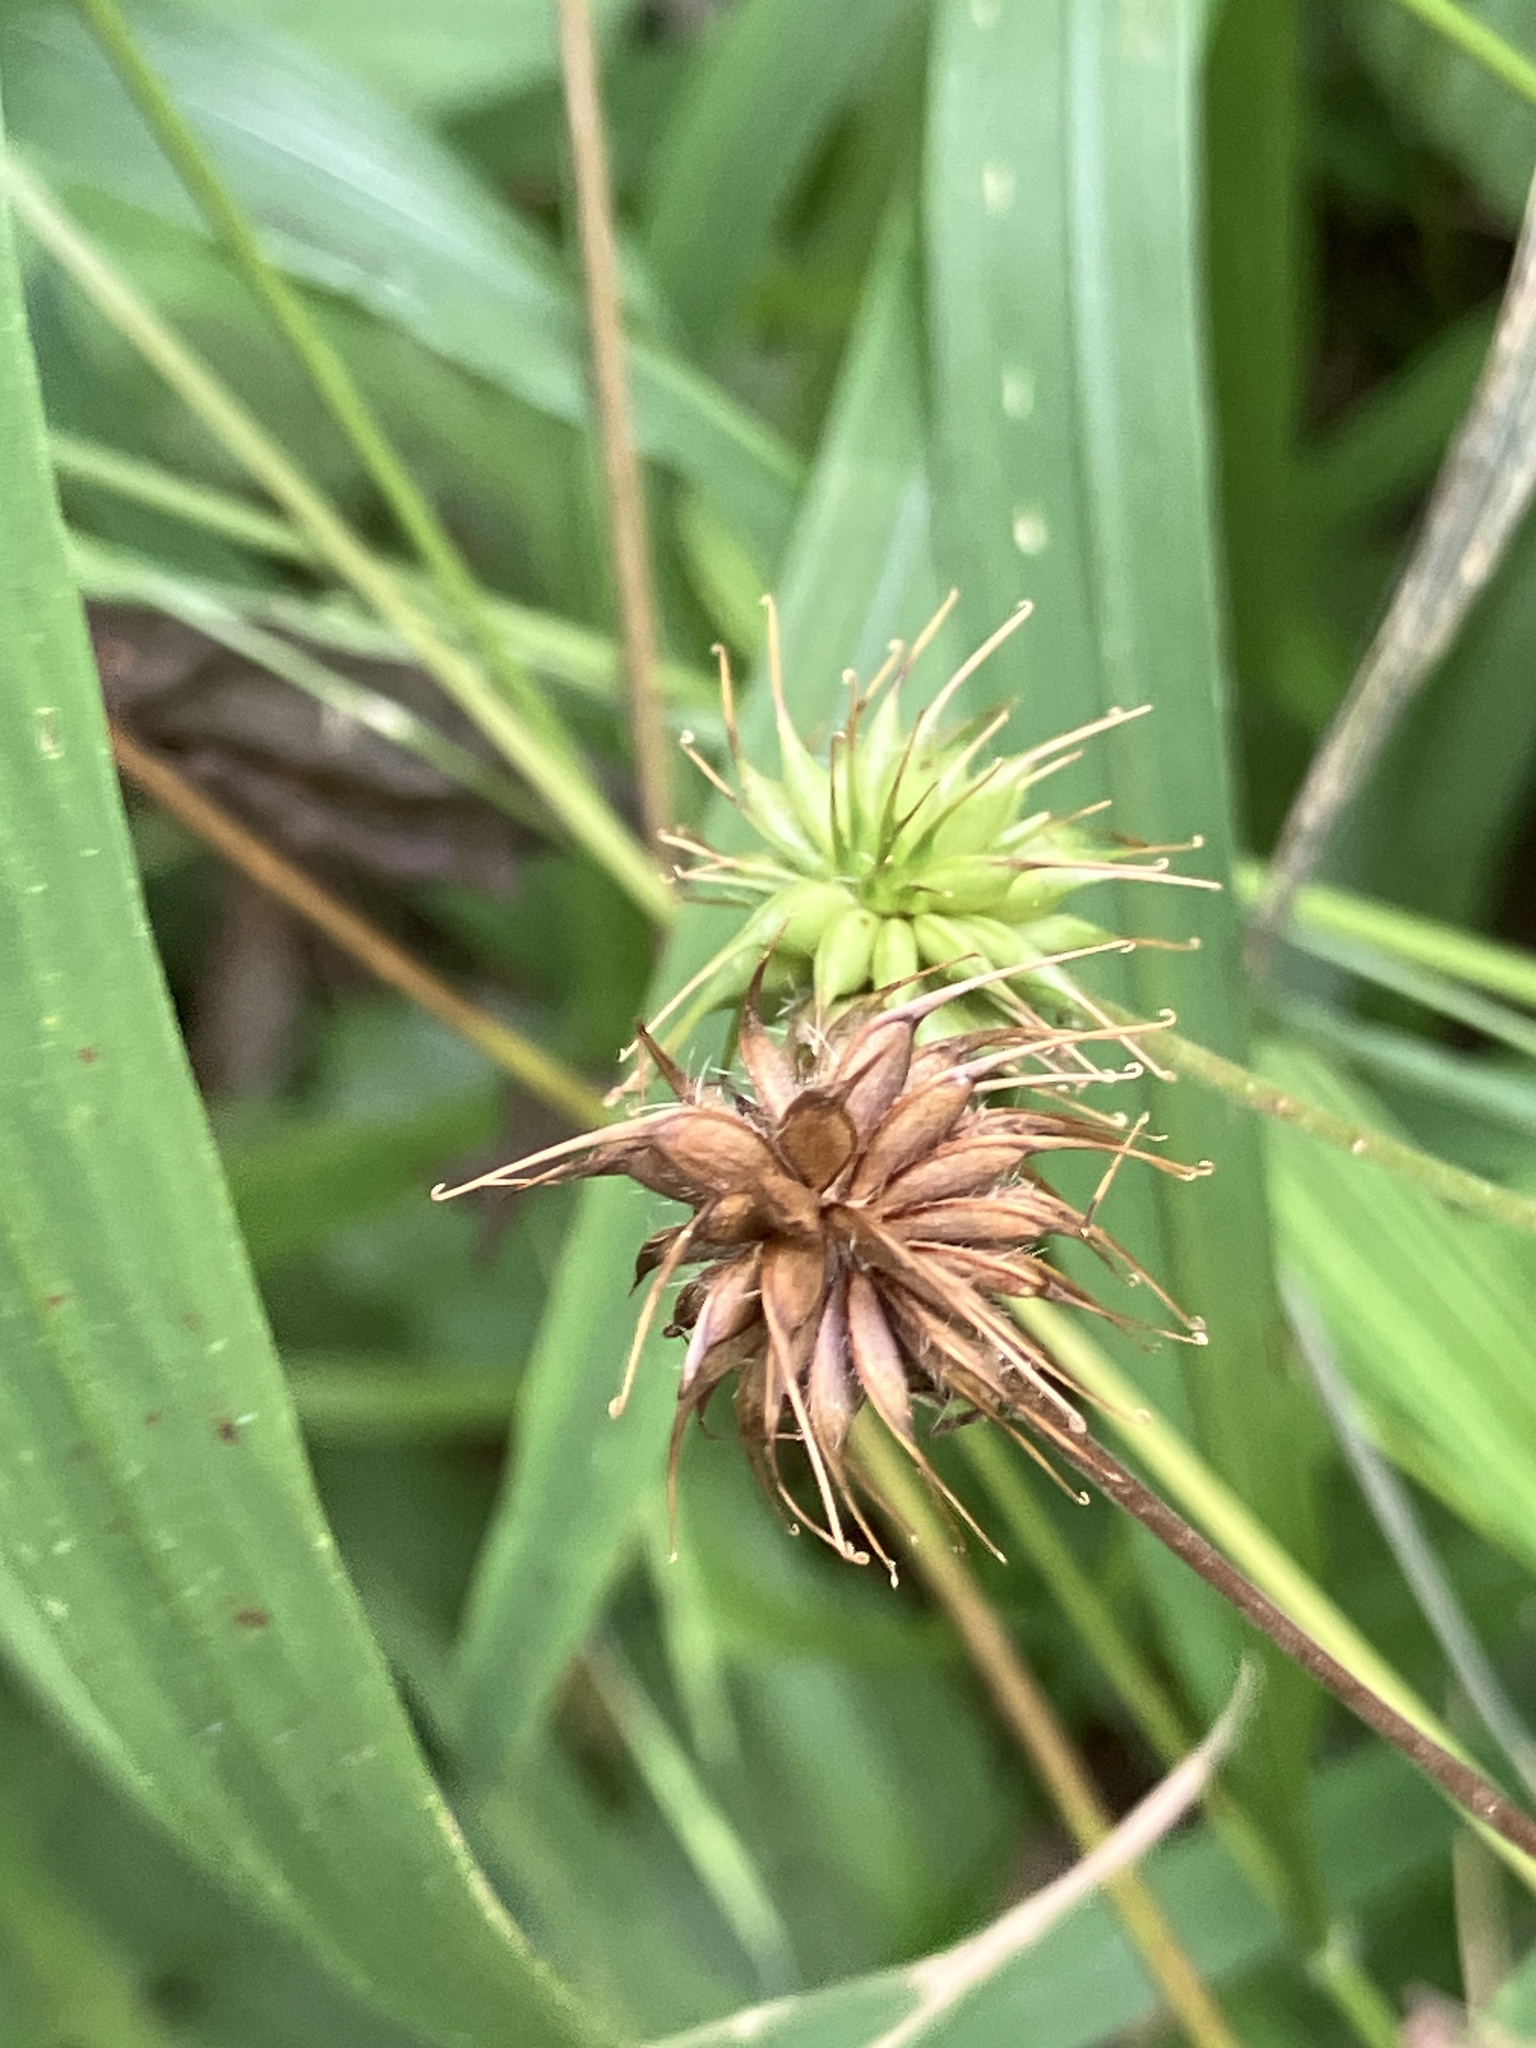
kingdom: Plantae
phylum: Tracheophyta
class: Magnoliopsida
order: Rosales
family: Rosaceae
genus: Geum
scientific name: Geum urbanum
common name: Wood avens
